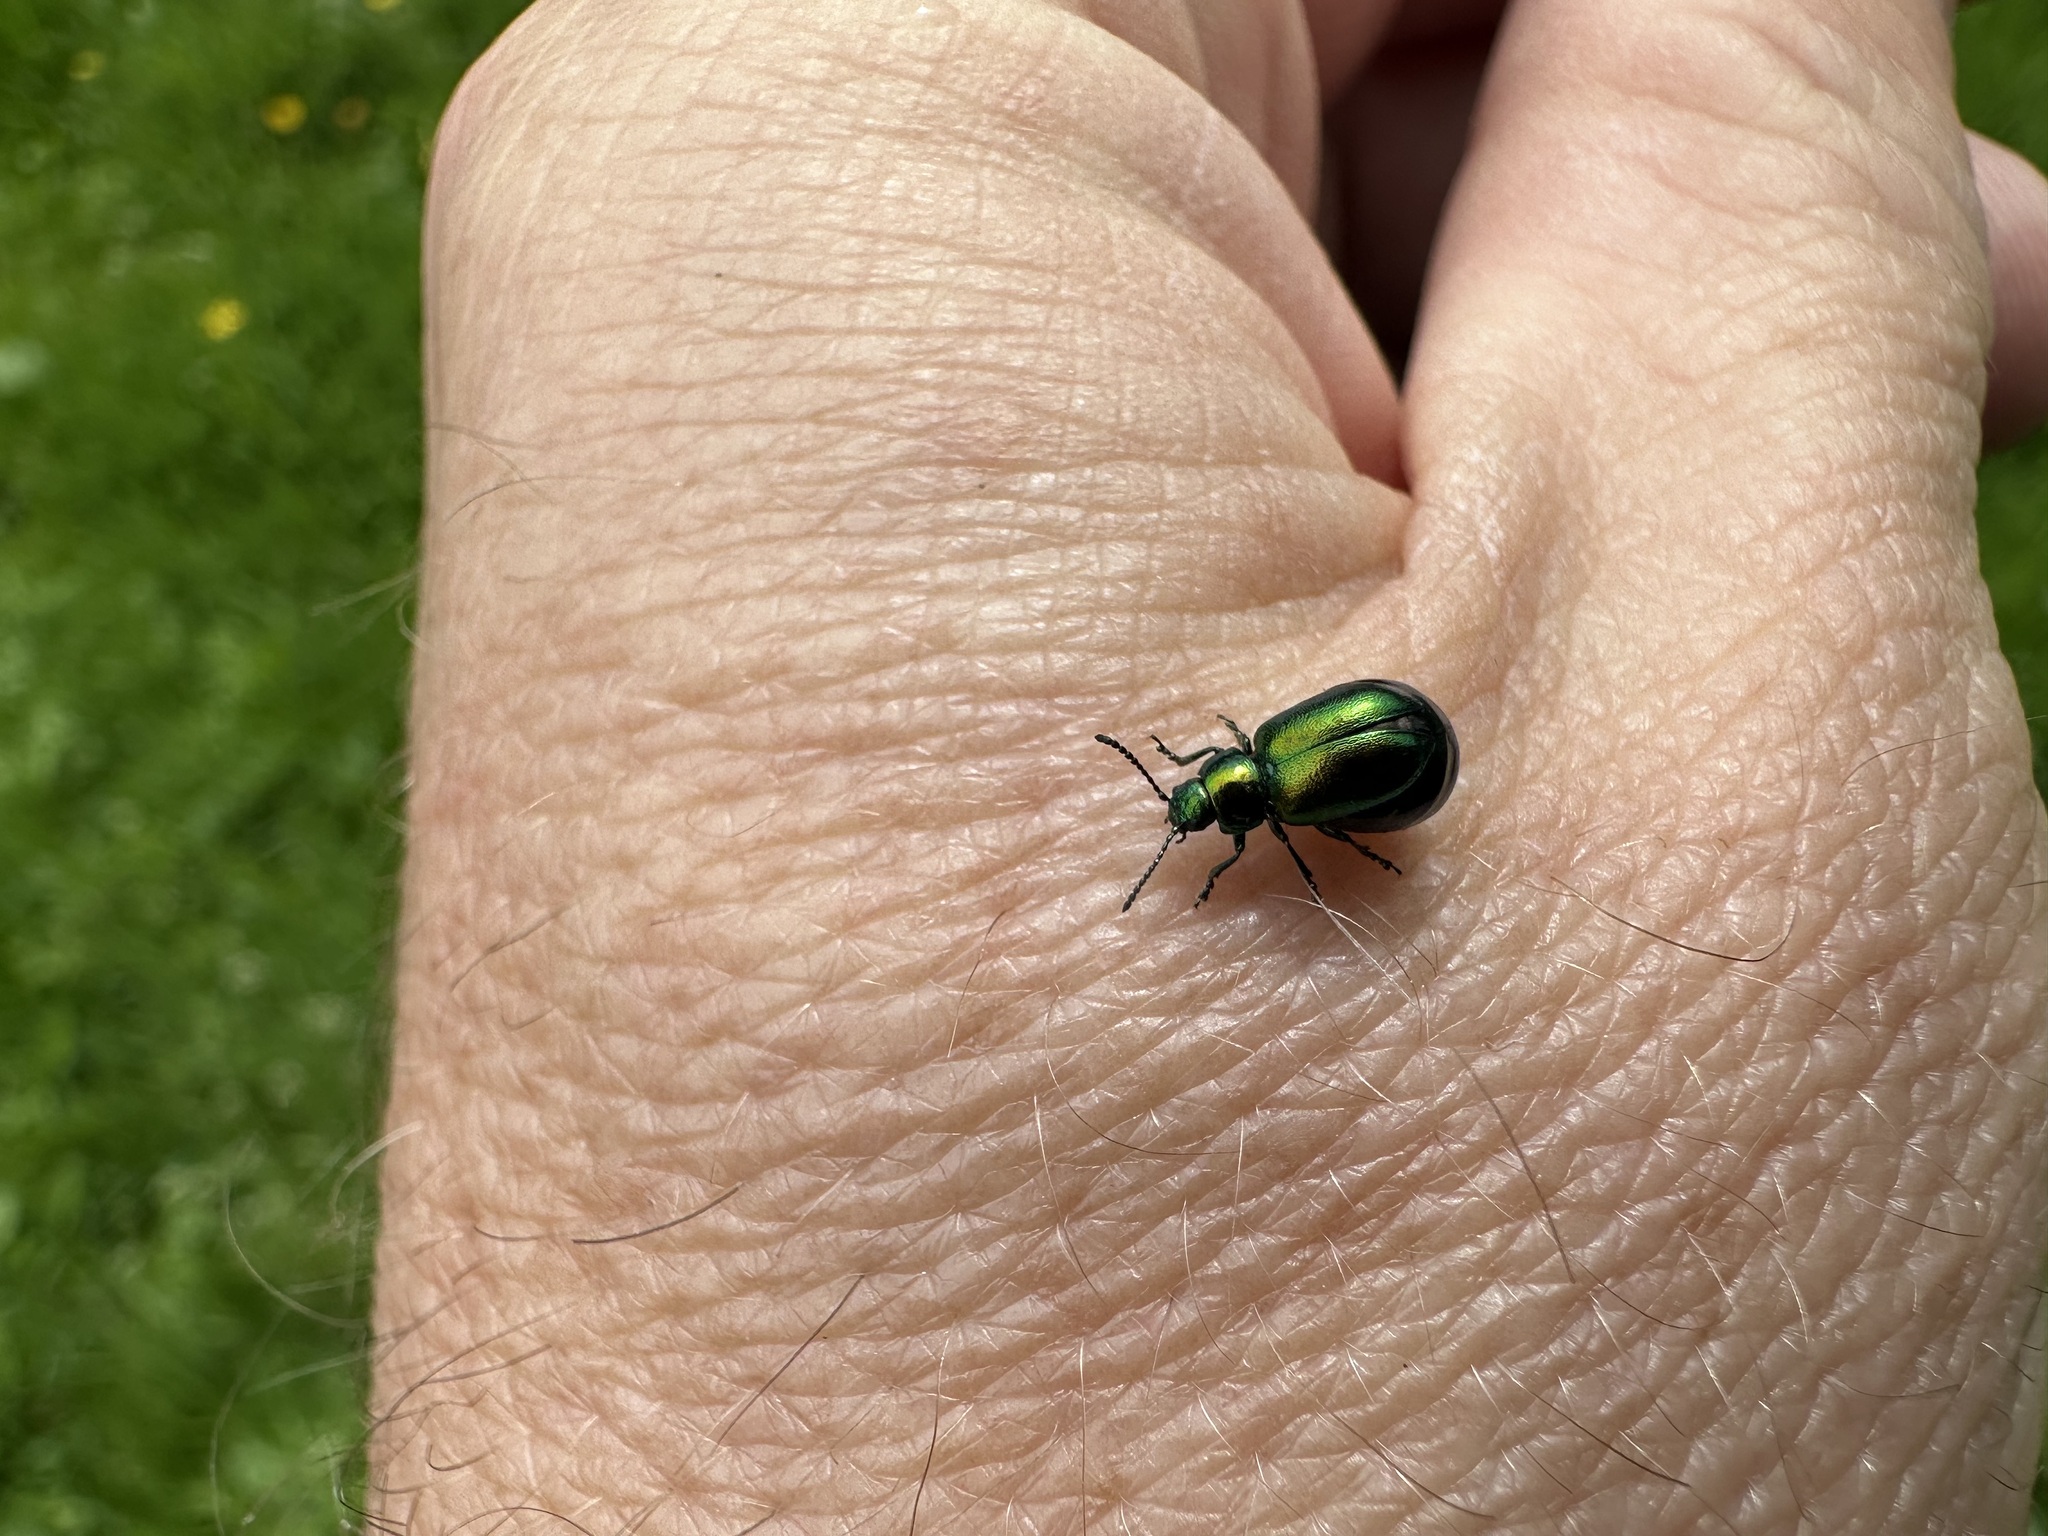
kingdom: Animalia
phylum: Arthropoda
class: Insecta
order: Coleoptera
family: Chrysomelidae
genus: Gastrophysa
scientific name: Gastrophysa viridula
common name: Green dock beetle
